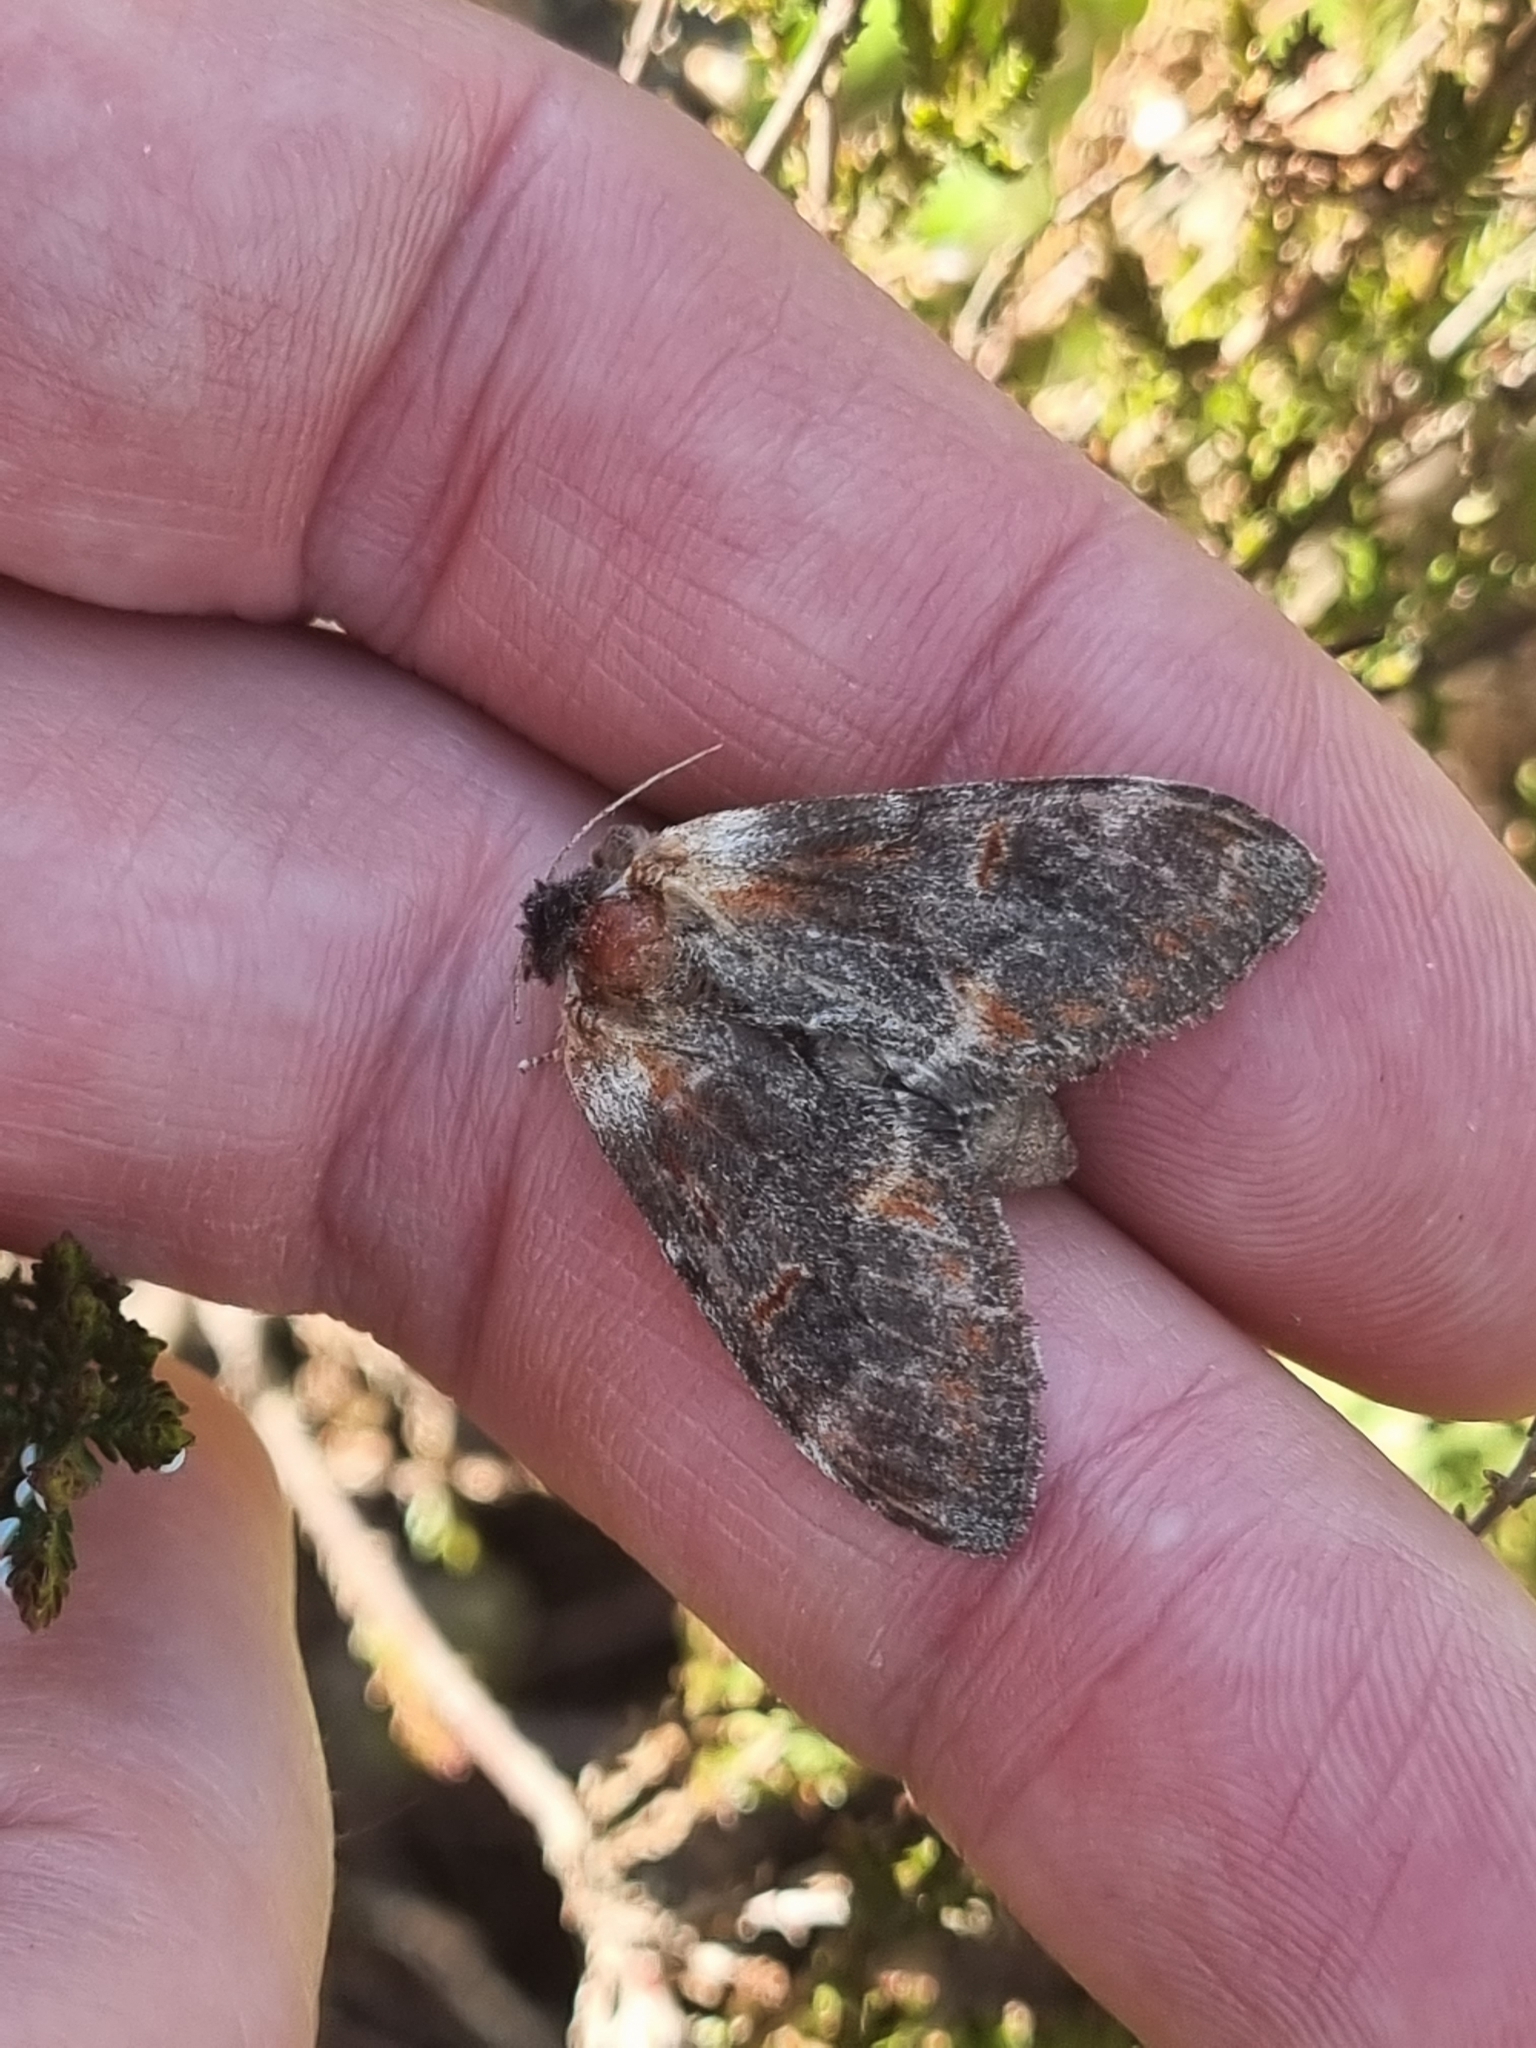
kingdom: Animalia
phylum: Arthropoda
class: Insecta
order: Lepidoptera
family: Notodontidae
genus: Notodonta
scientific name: Notodonta dromedarius
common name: Iron prominent
